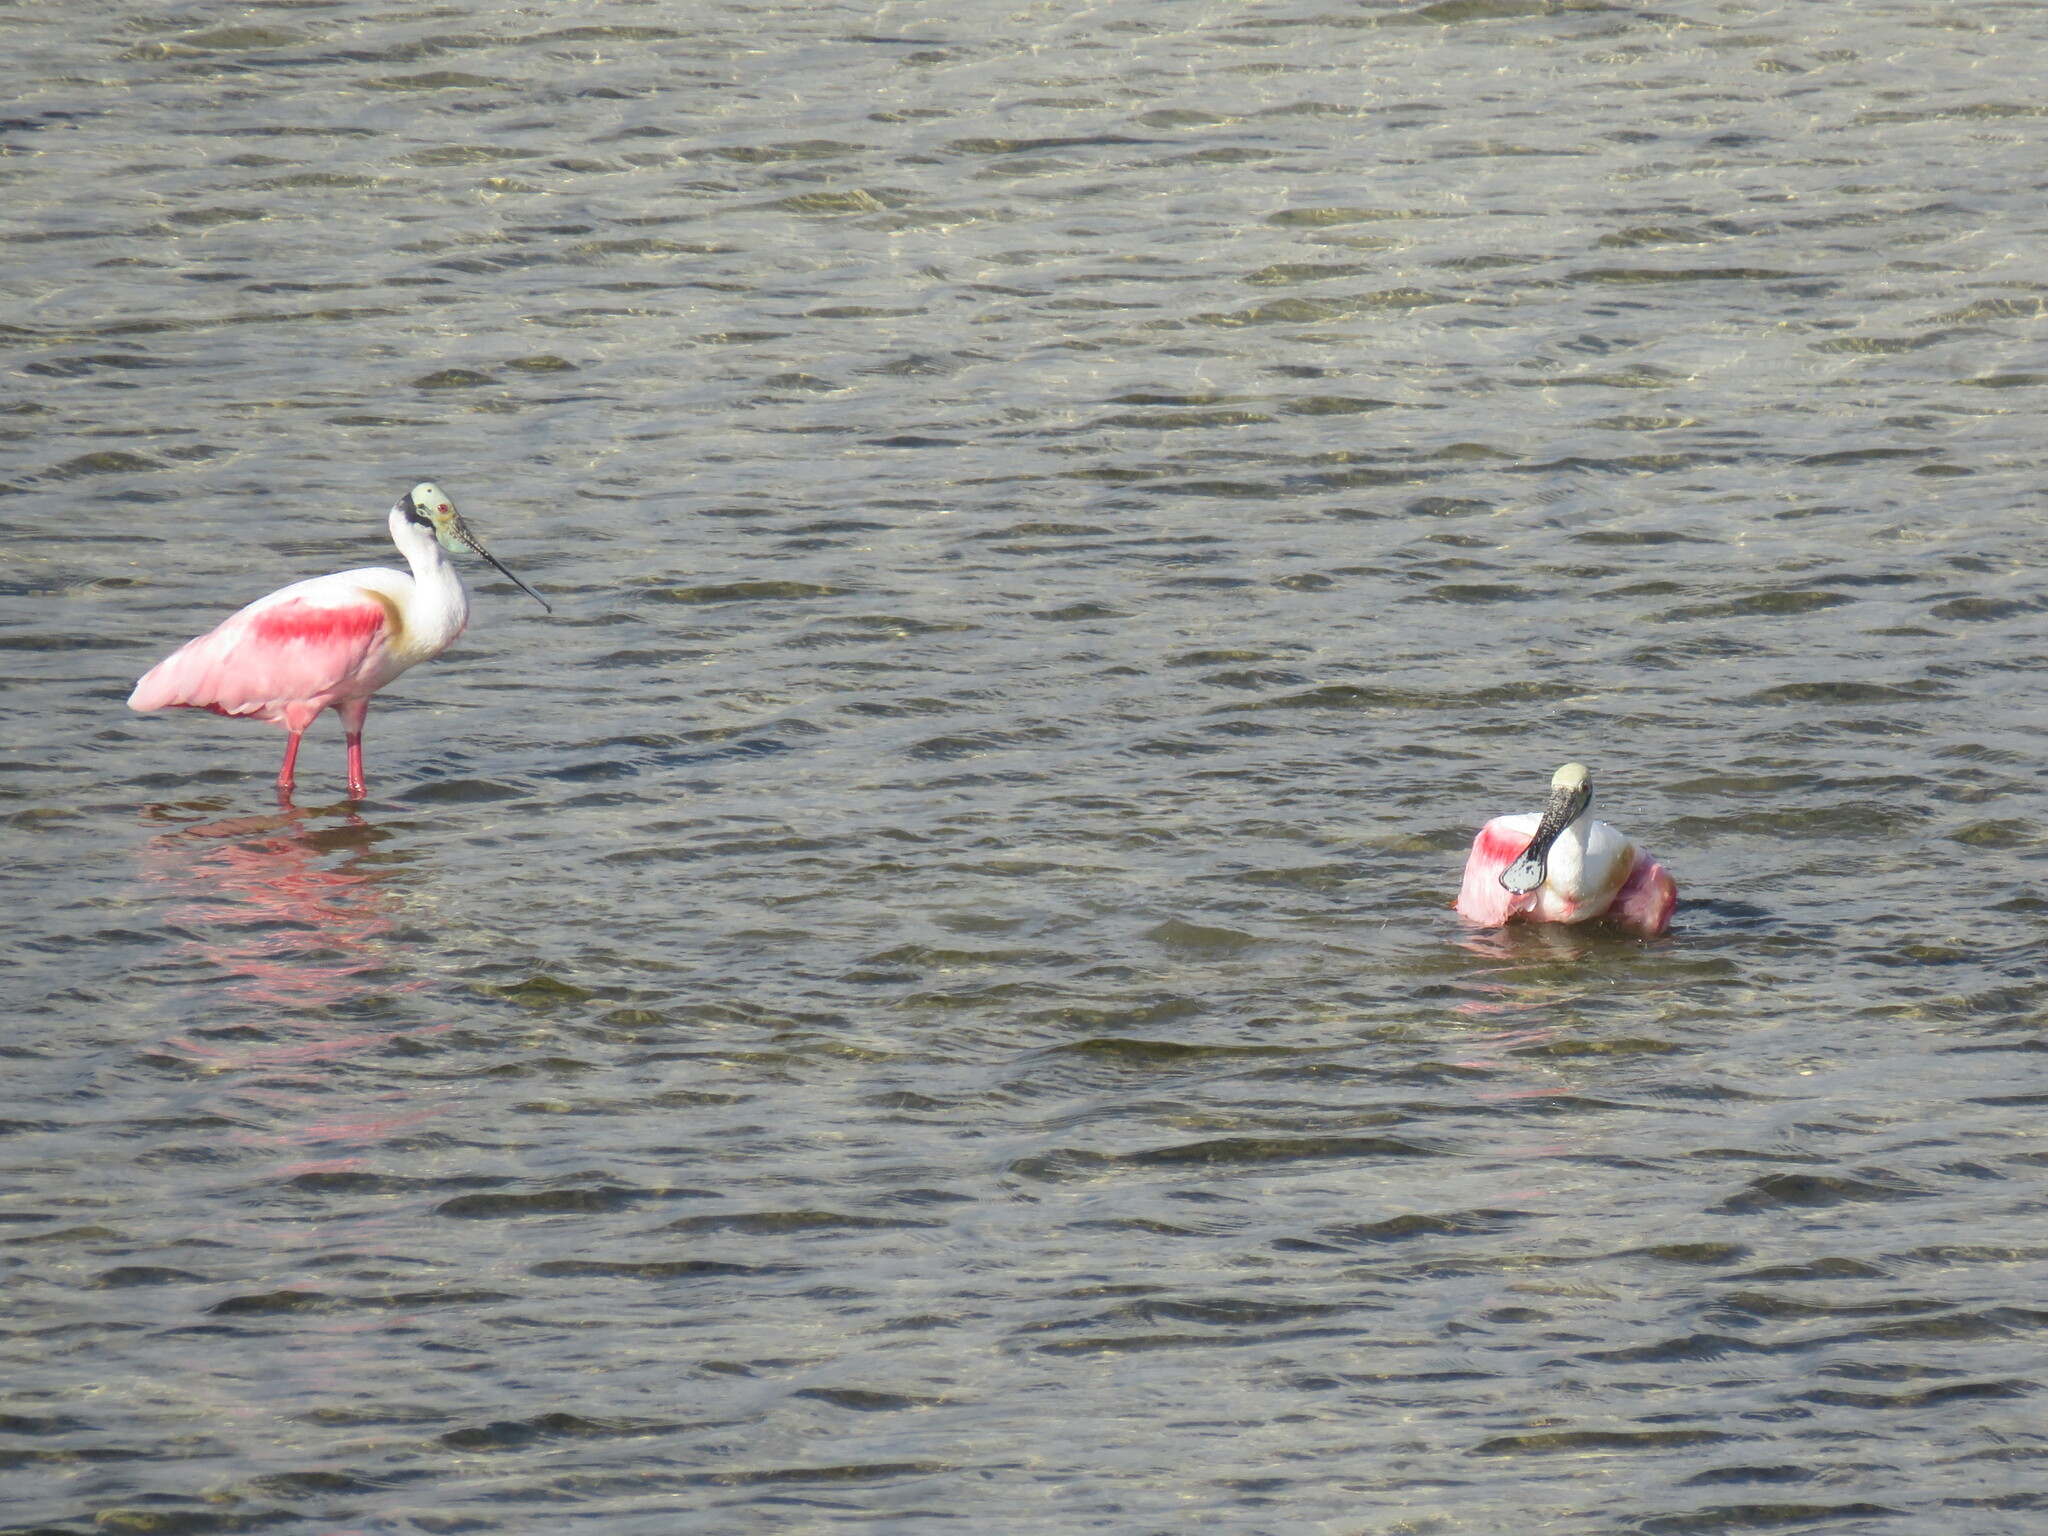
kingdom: Animalia
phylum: Chordata
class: Aves
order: Pelecaniformes
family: Threskiornithidae
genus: Platalea
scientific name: Platalea ajaja
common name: Roseate spoonbill
